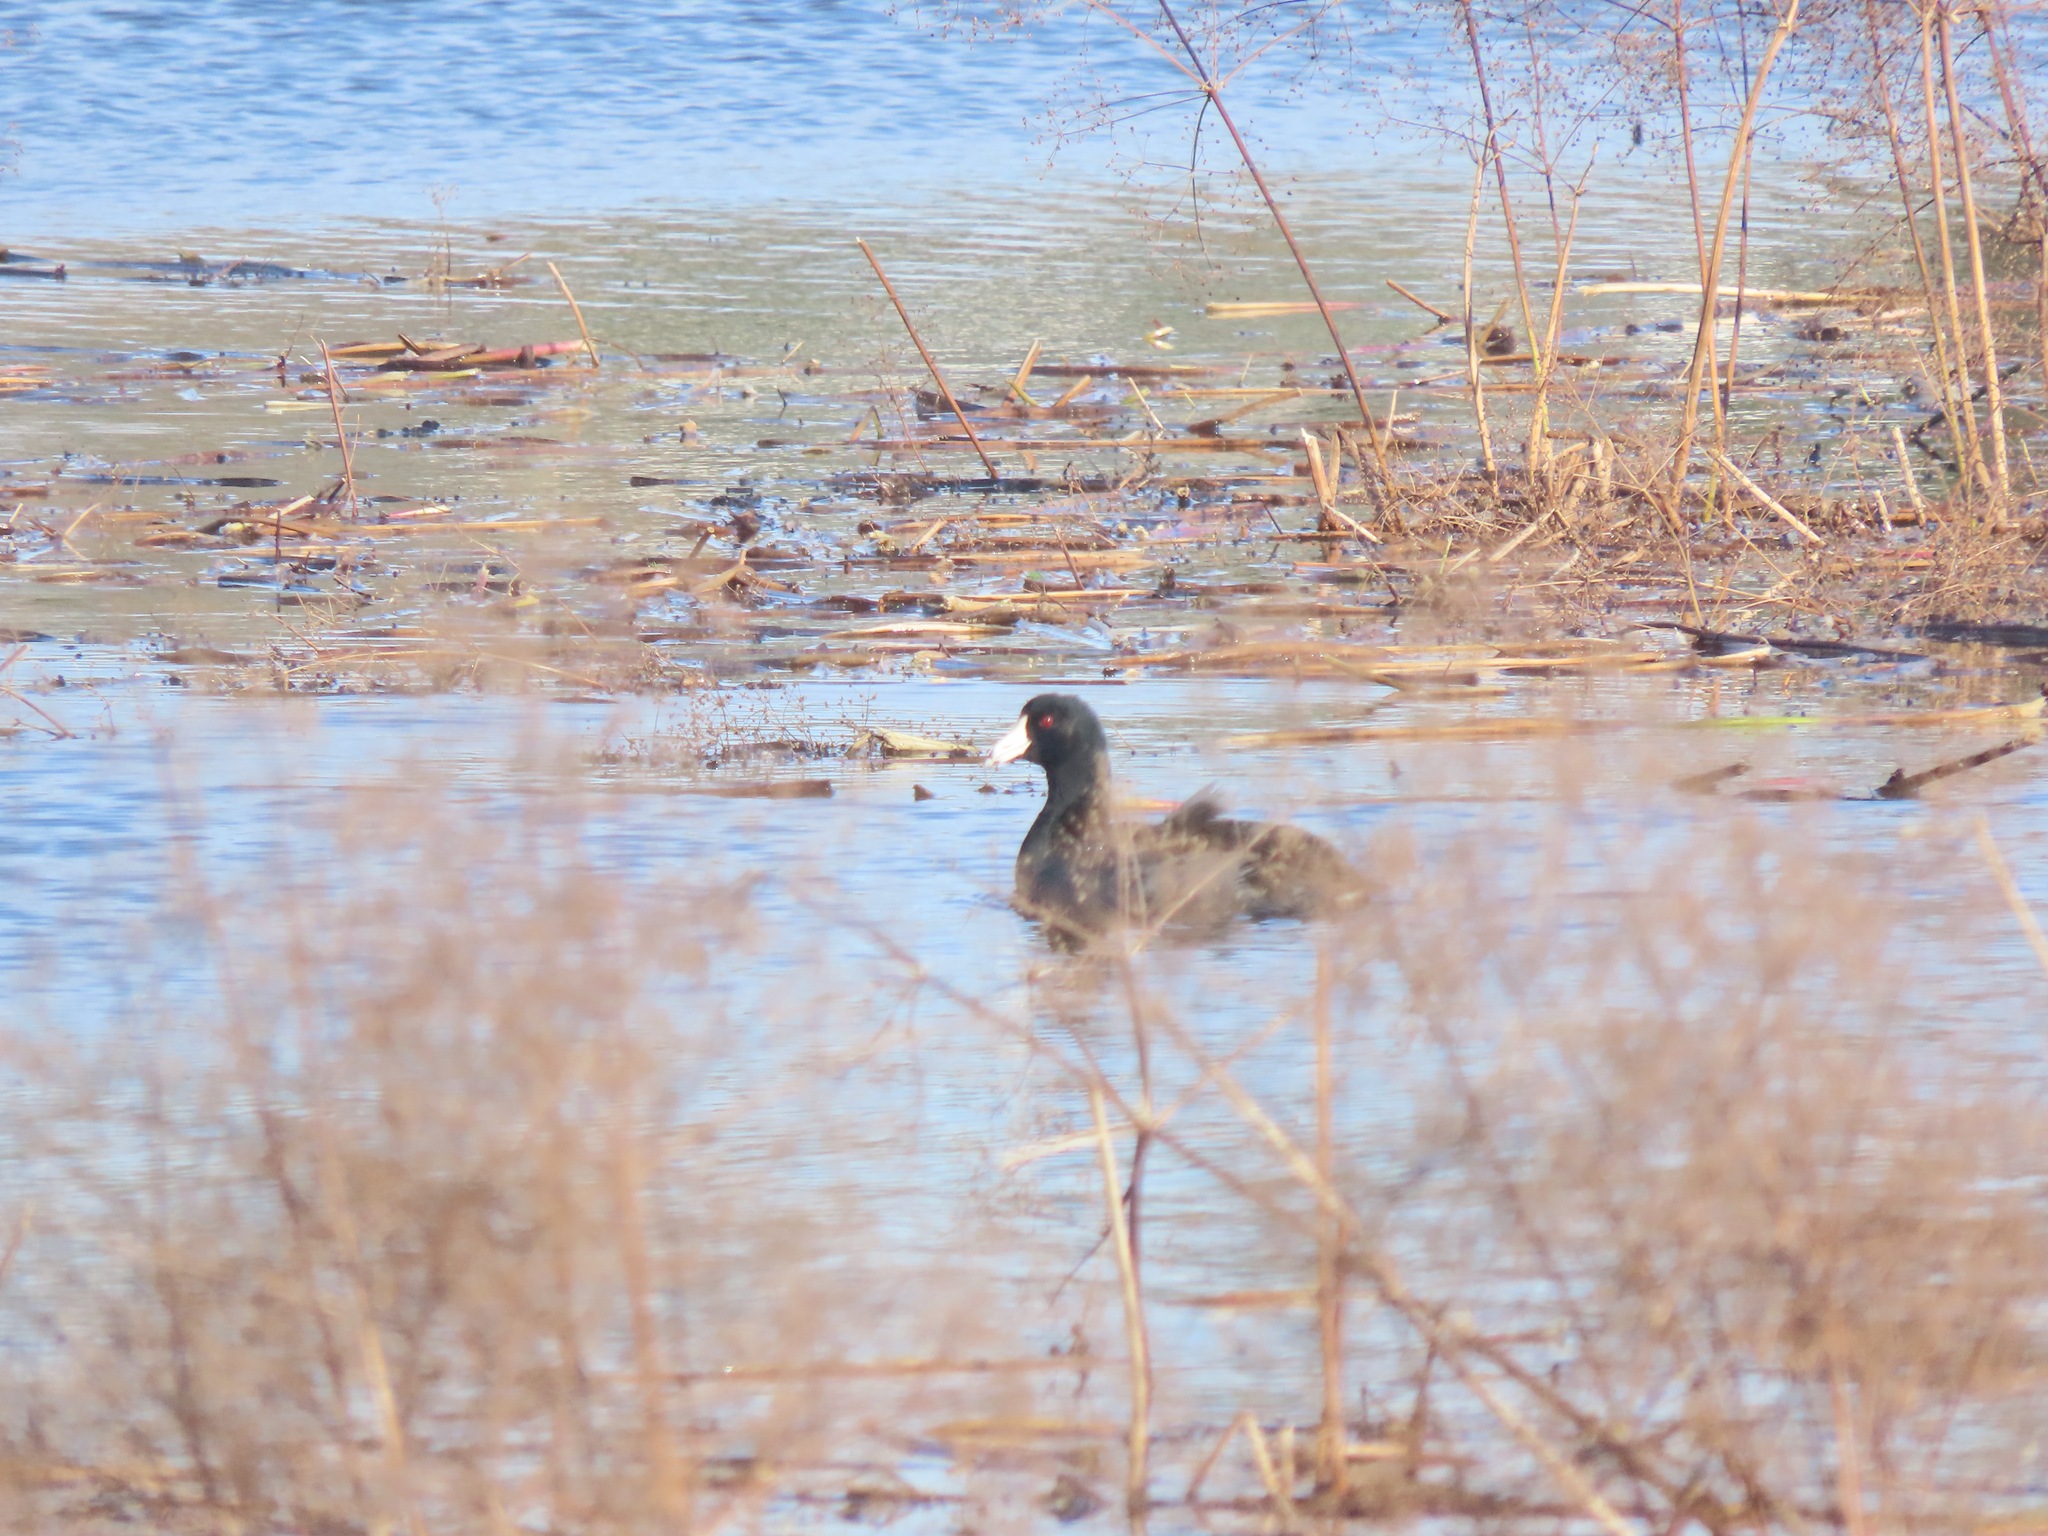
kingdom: Animalia
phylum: Chordata
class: Aves
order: Gruiformes
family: Rallidae
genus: Fulica
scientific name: Fulica americana
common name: American coot
